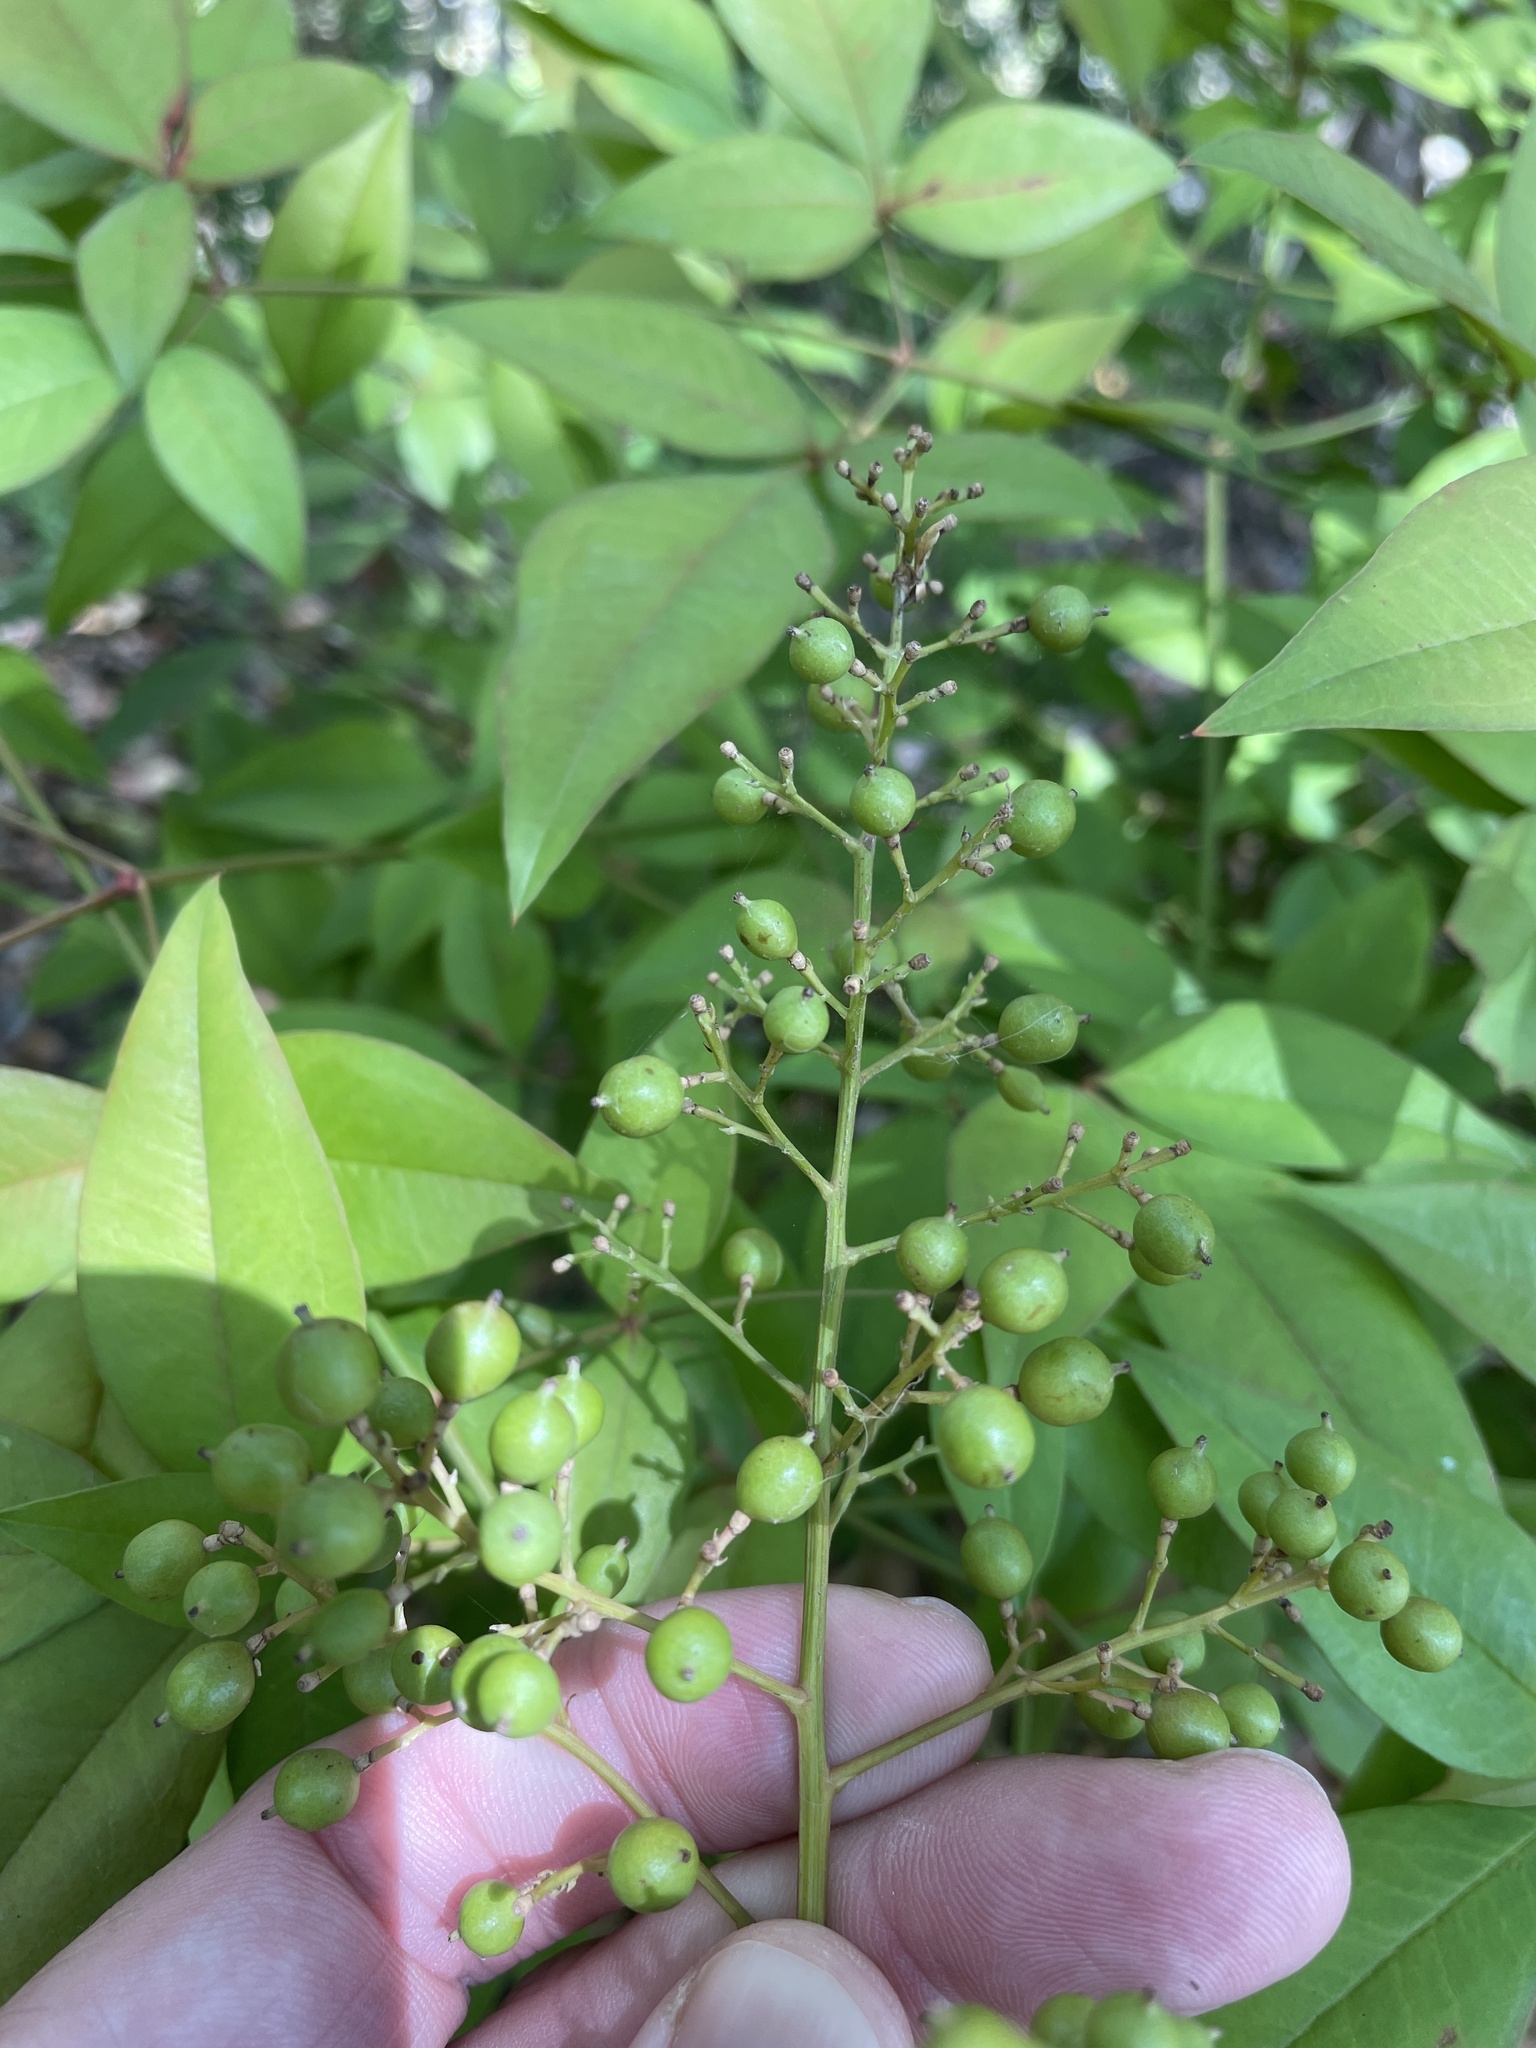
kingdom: Plantae
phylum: Tracheophyta
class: Magnoliopsida
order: Ranunculales
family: Berberidaceae
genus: Nandina
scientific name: Nandina domestica
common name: Sacred bamboo
